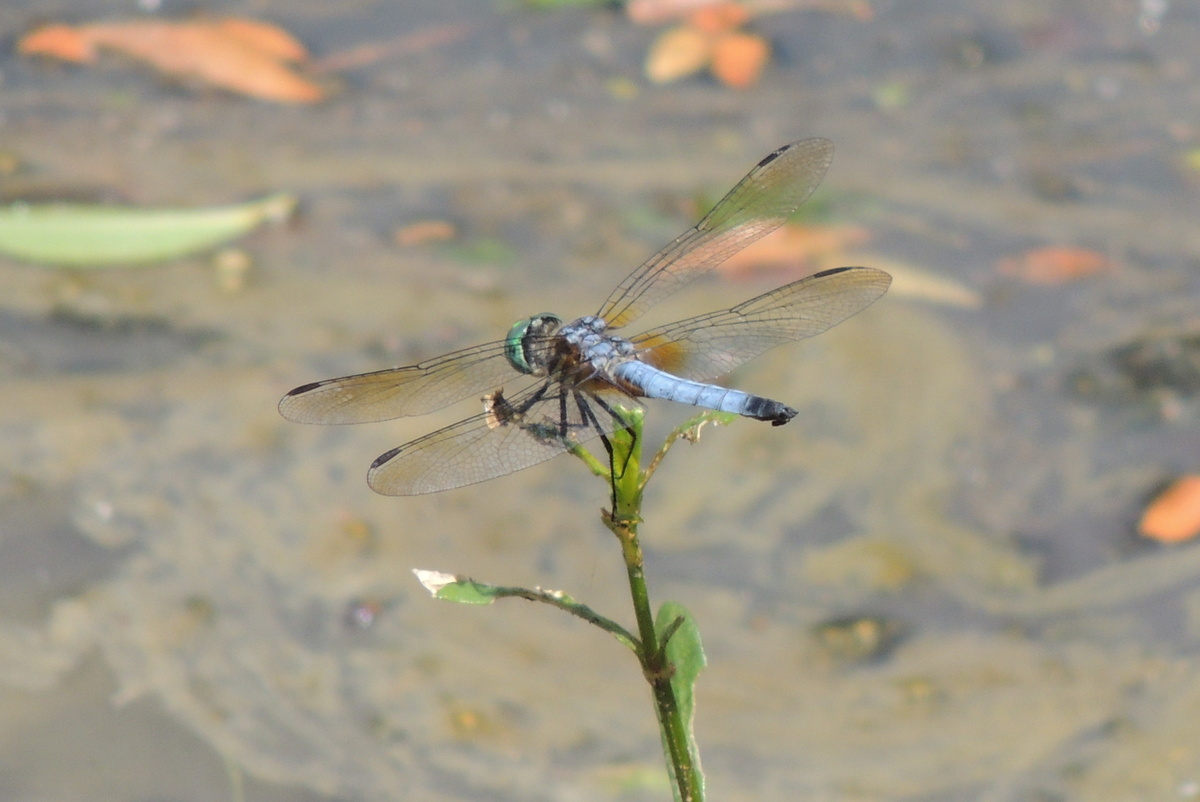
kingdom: Animalia
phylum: Arthropoda
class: Insecta
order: Odonata
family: Libellulidae
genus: Pachydiplax
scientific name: Pachydiplax longipennis
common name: Blue dasher
